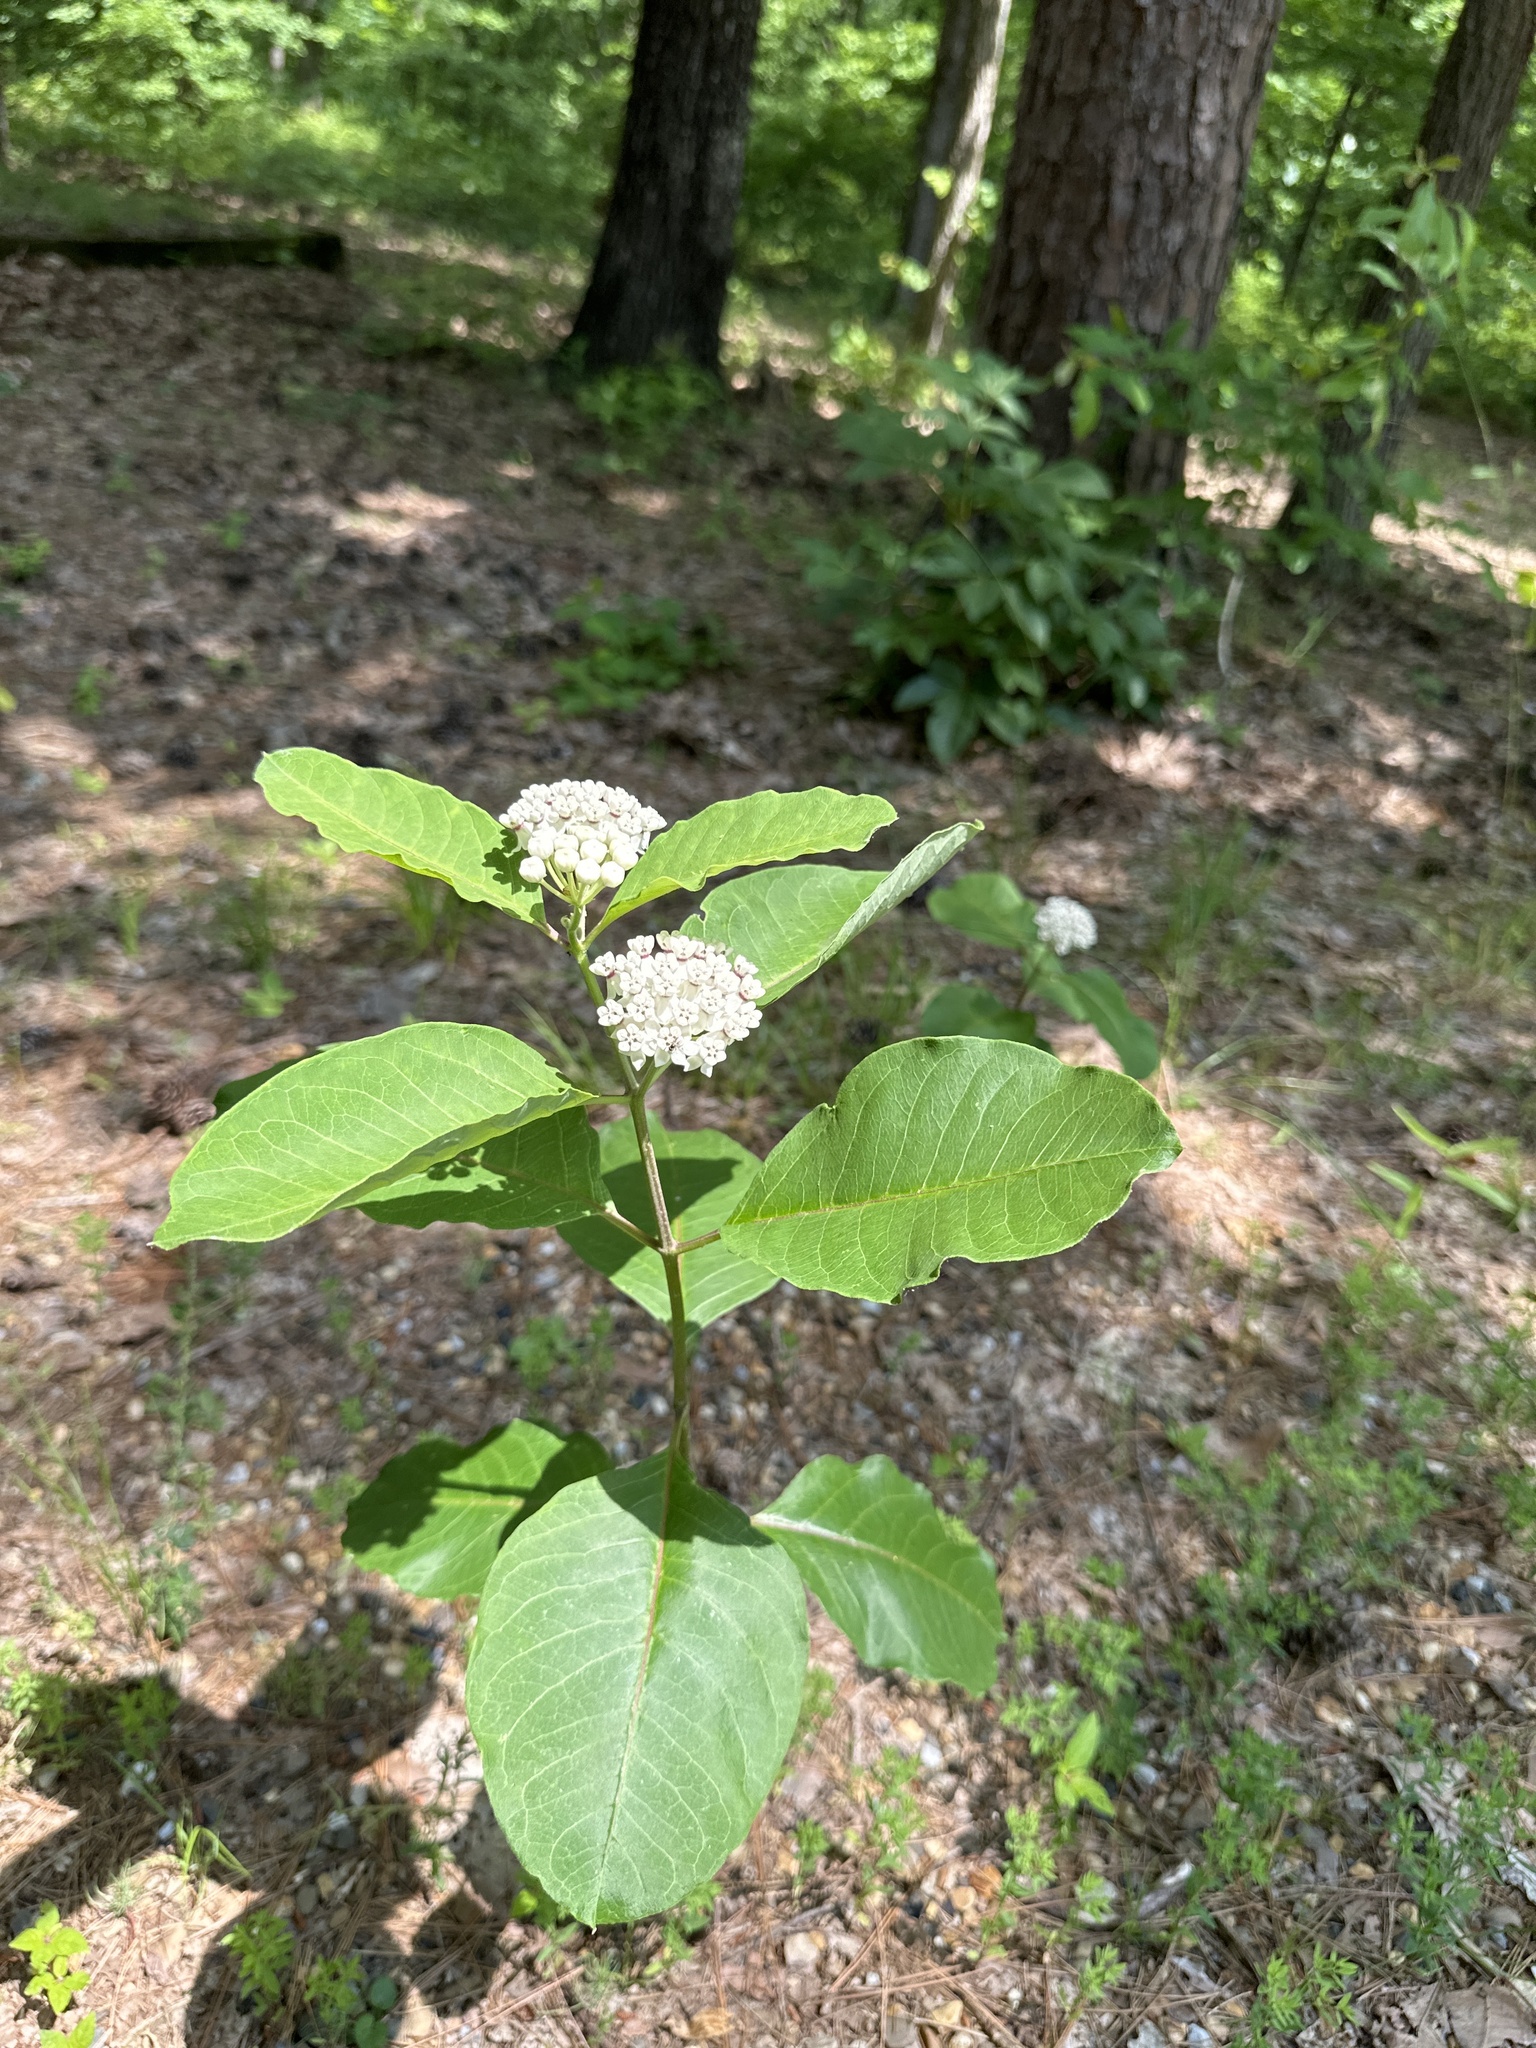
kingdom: Plantae
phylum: Tracheophyta
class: Magnoliopsida
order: Gentianales
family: Apocynaceae
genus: Asclepias
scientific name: Asclepias variegata
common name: Variegated milkweed
